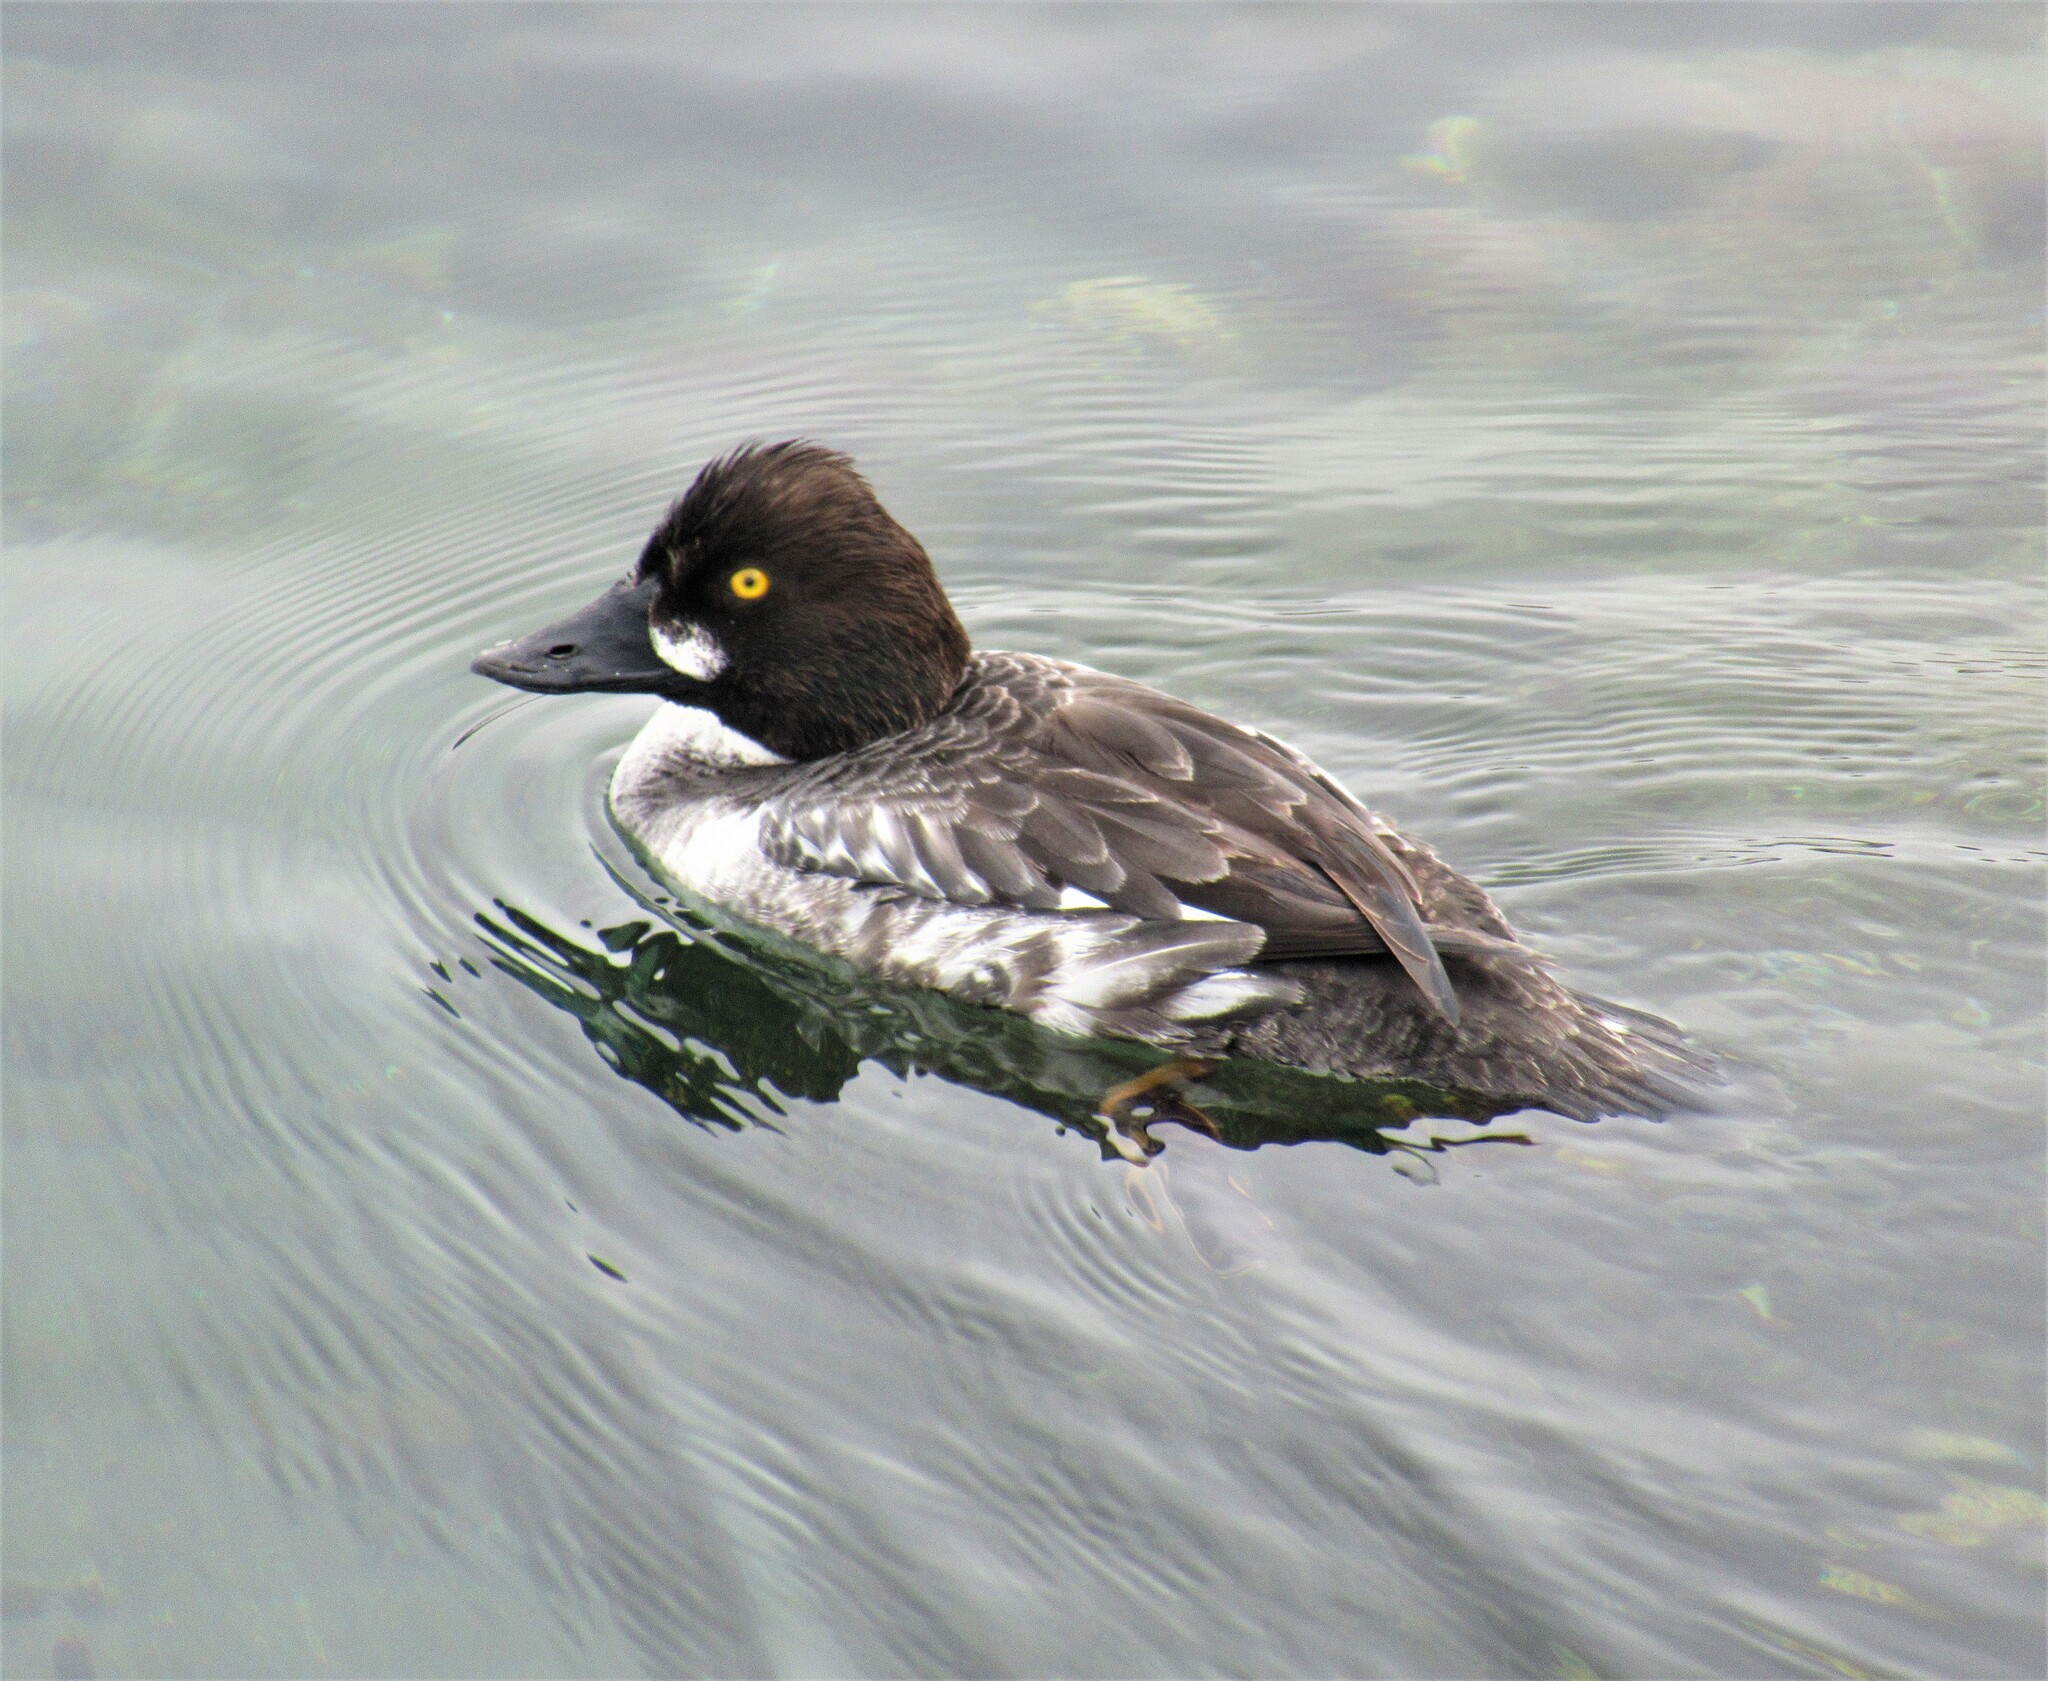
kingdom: Animalia
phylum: Chordata
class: Aves
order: Anseriformes
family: Anatidae
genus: Bucephala
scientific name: Bucephala clangula
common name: Common goldeneye
